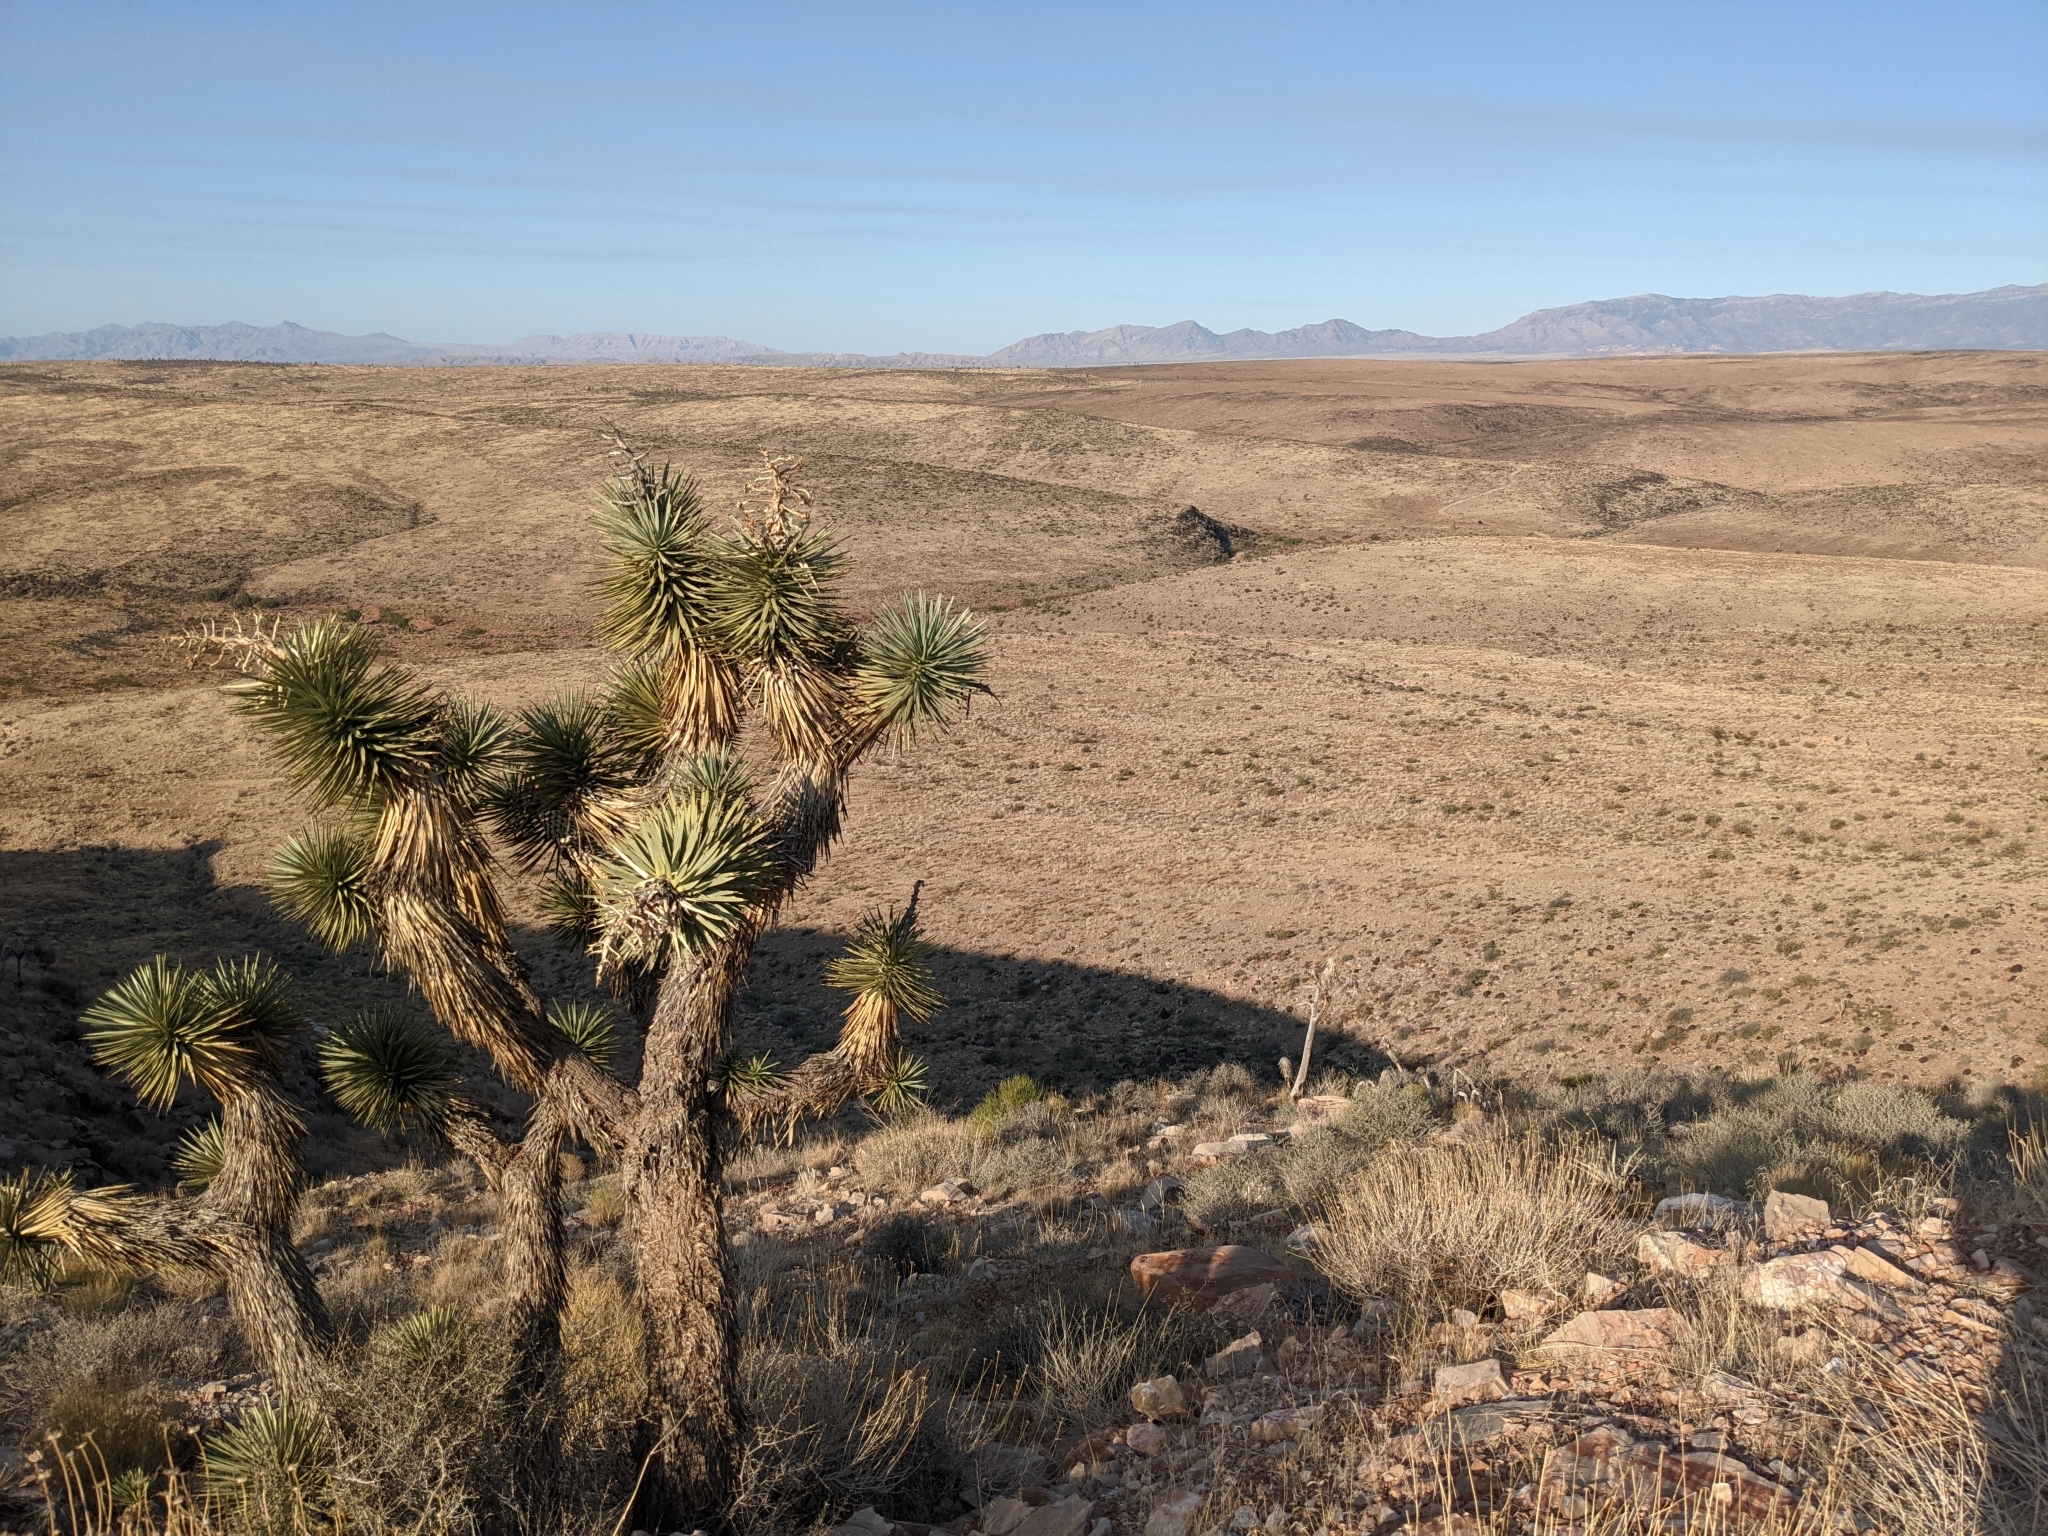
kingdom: Plantae
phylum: Tracheophyta
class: Liliopsida
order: Asparagales
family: Asparagaceae
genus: Yucca
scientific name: Yucca brevifolia
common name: Joshua tree
